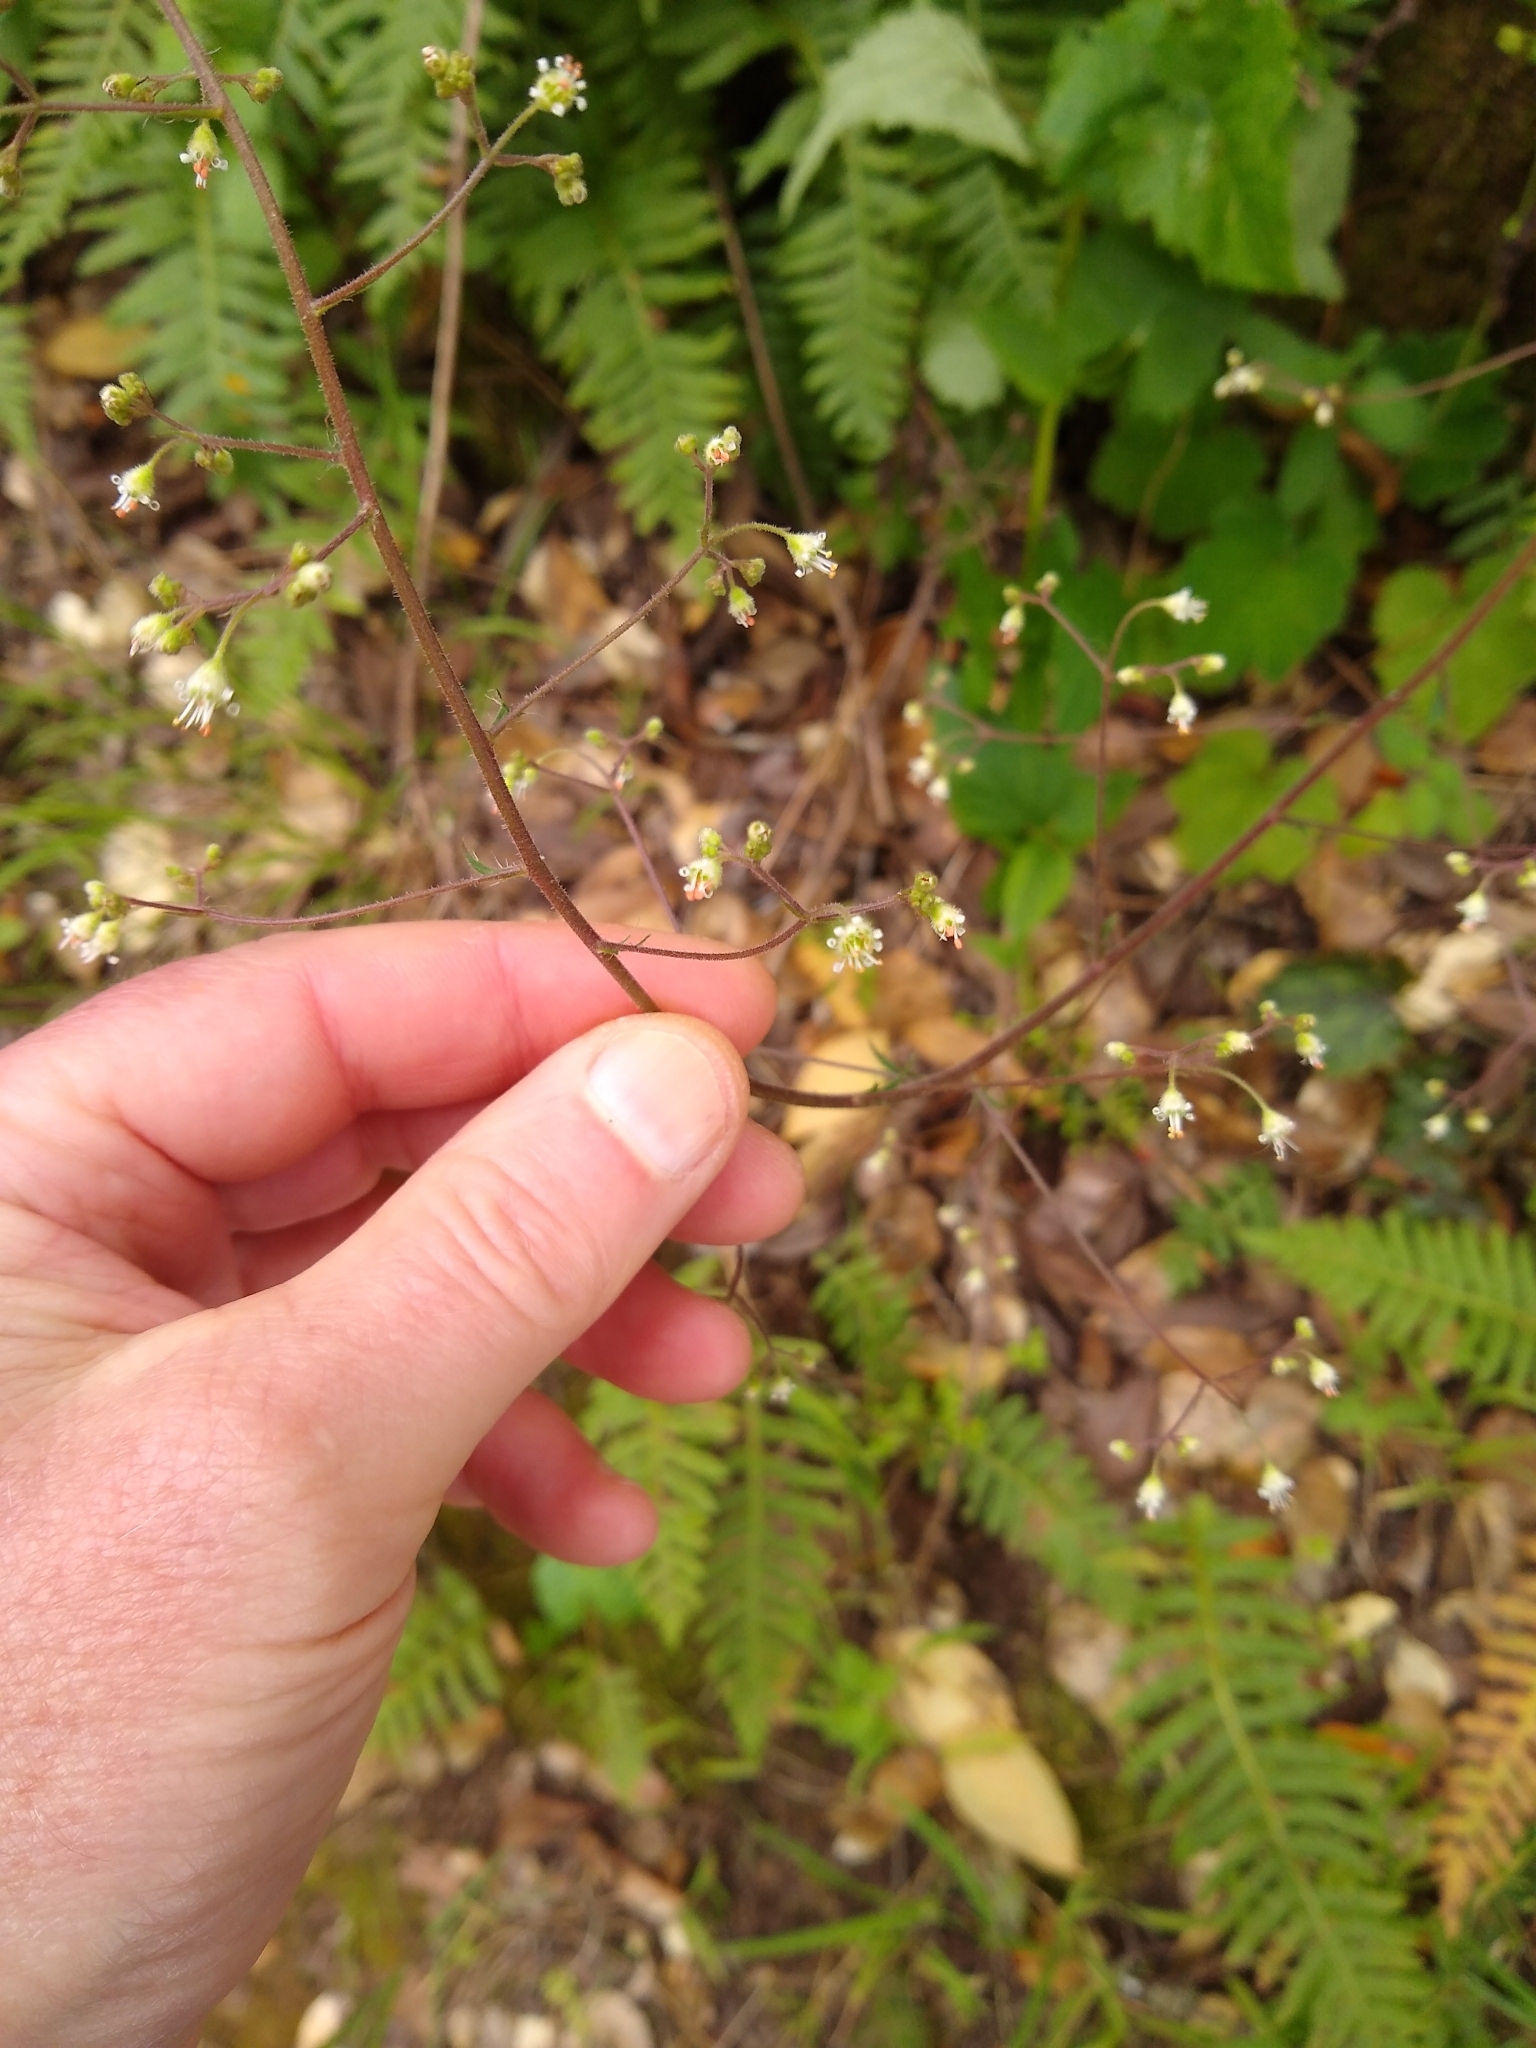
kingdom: Plantae
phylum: Tracheophyta
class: Magnoliopsida
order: Saxifragales
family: Saxifragaceae
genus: Heuchera
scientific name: Heuchera micrantha
